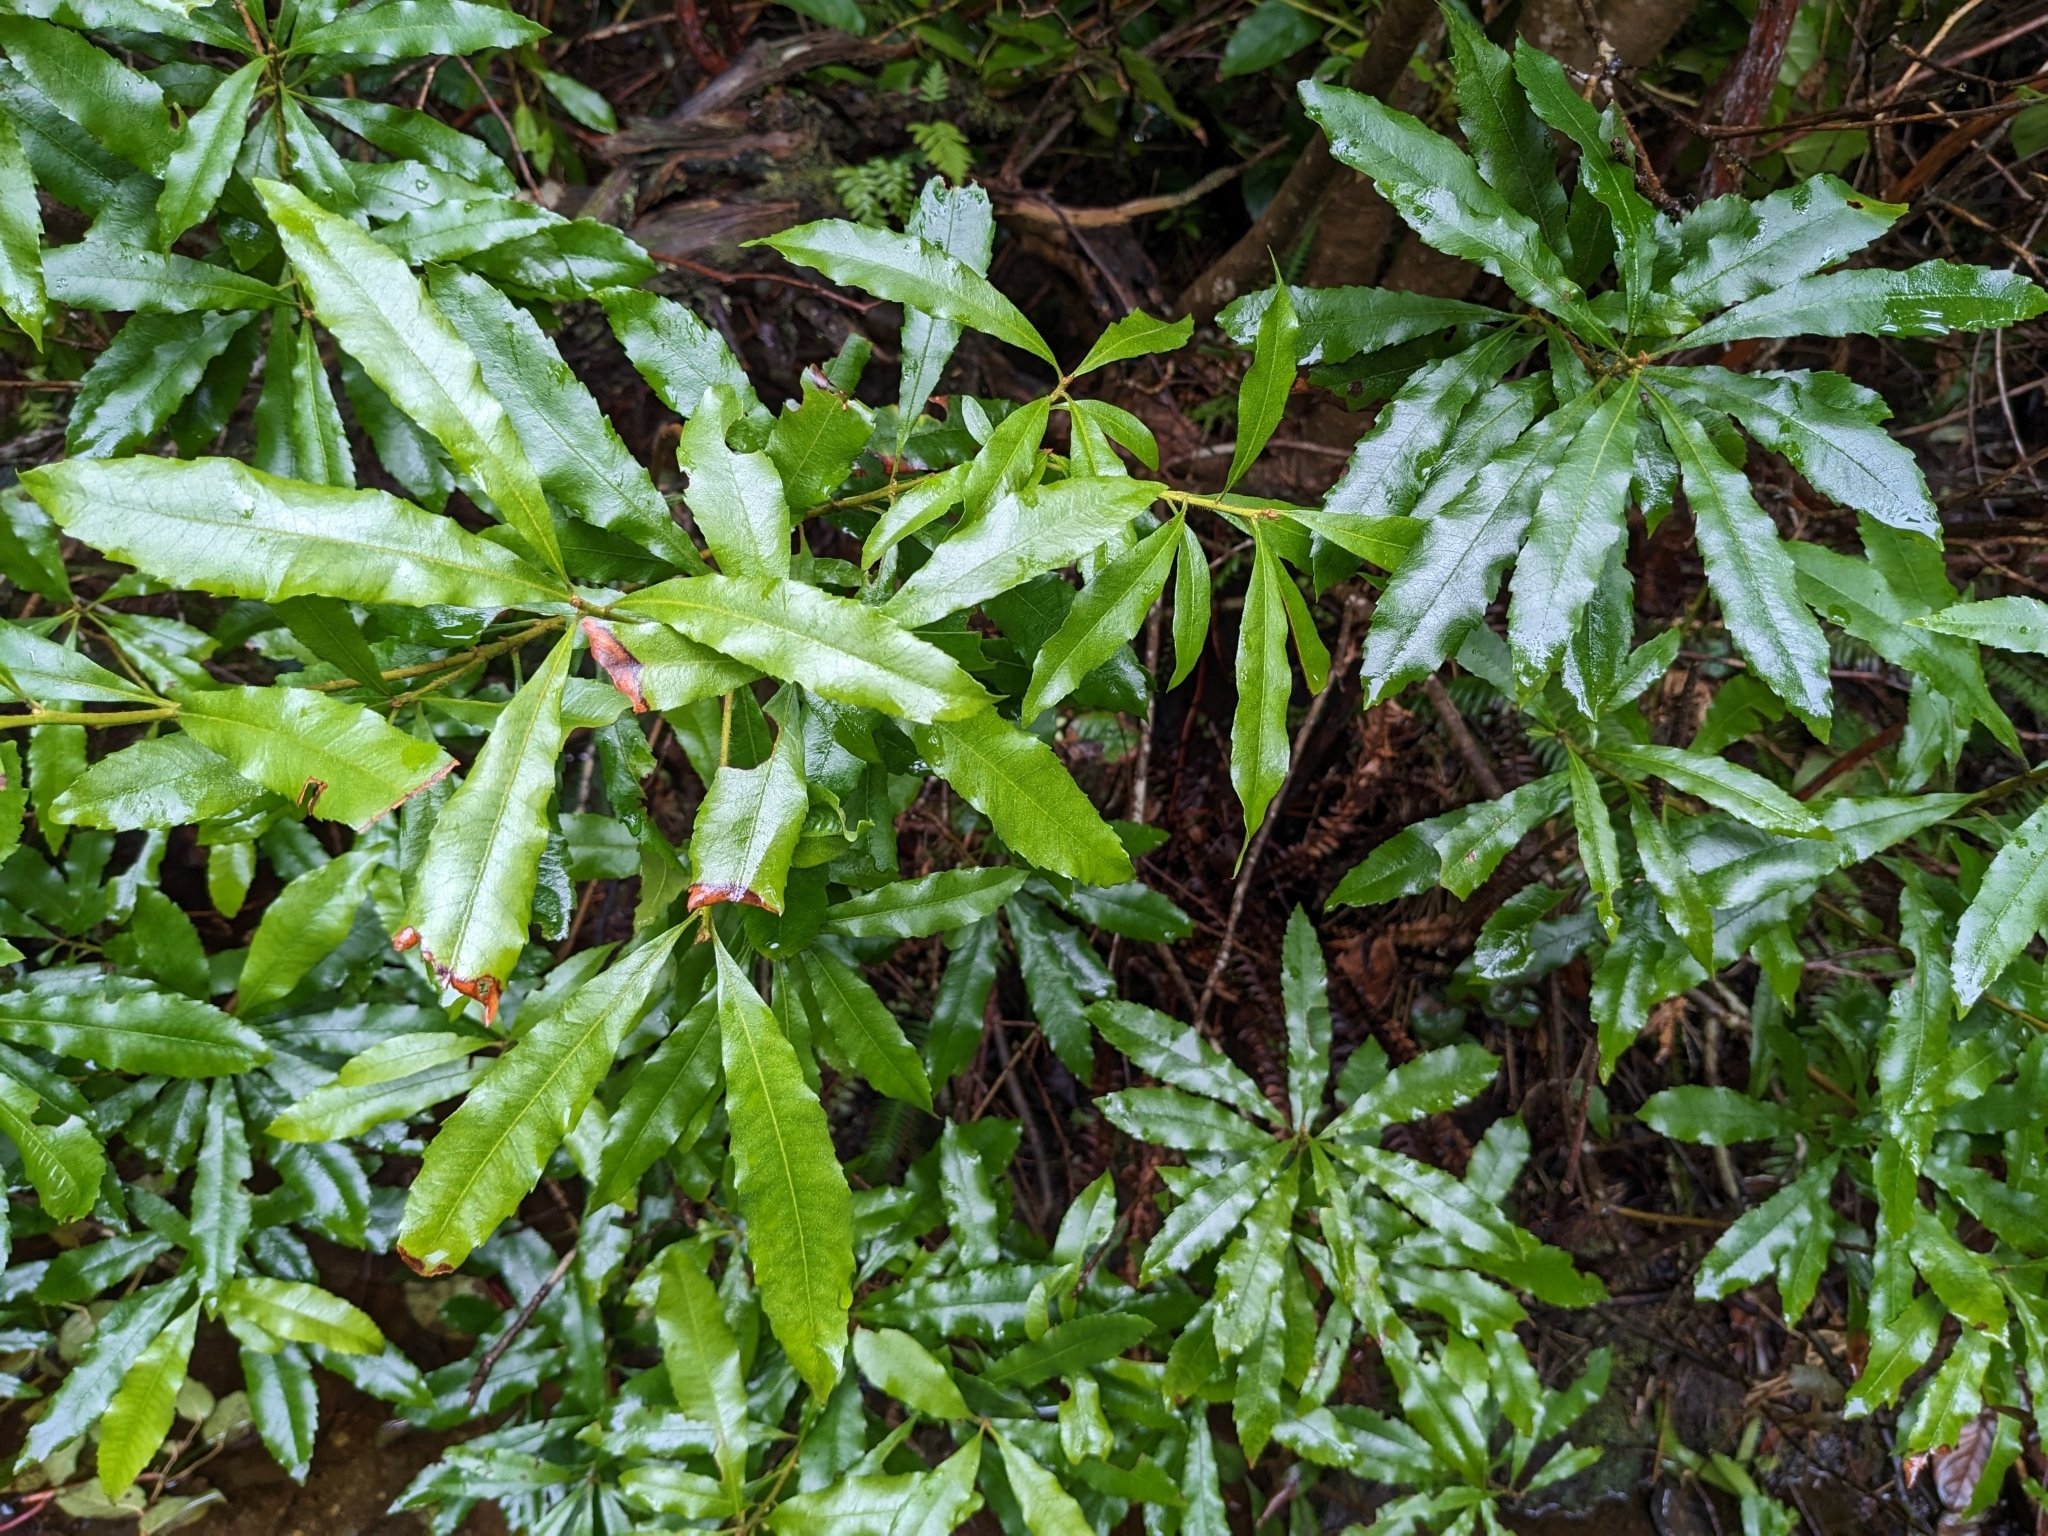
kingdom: Plantae
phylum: Tracheophyta
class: Magnoliopsida
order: Fagales
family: Myricaceae
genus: Morella
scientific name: Morella californica
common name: California wax-myrtle
